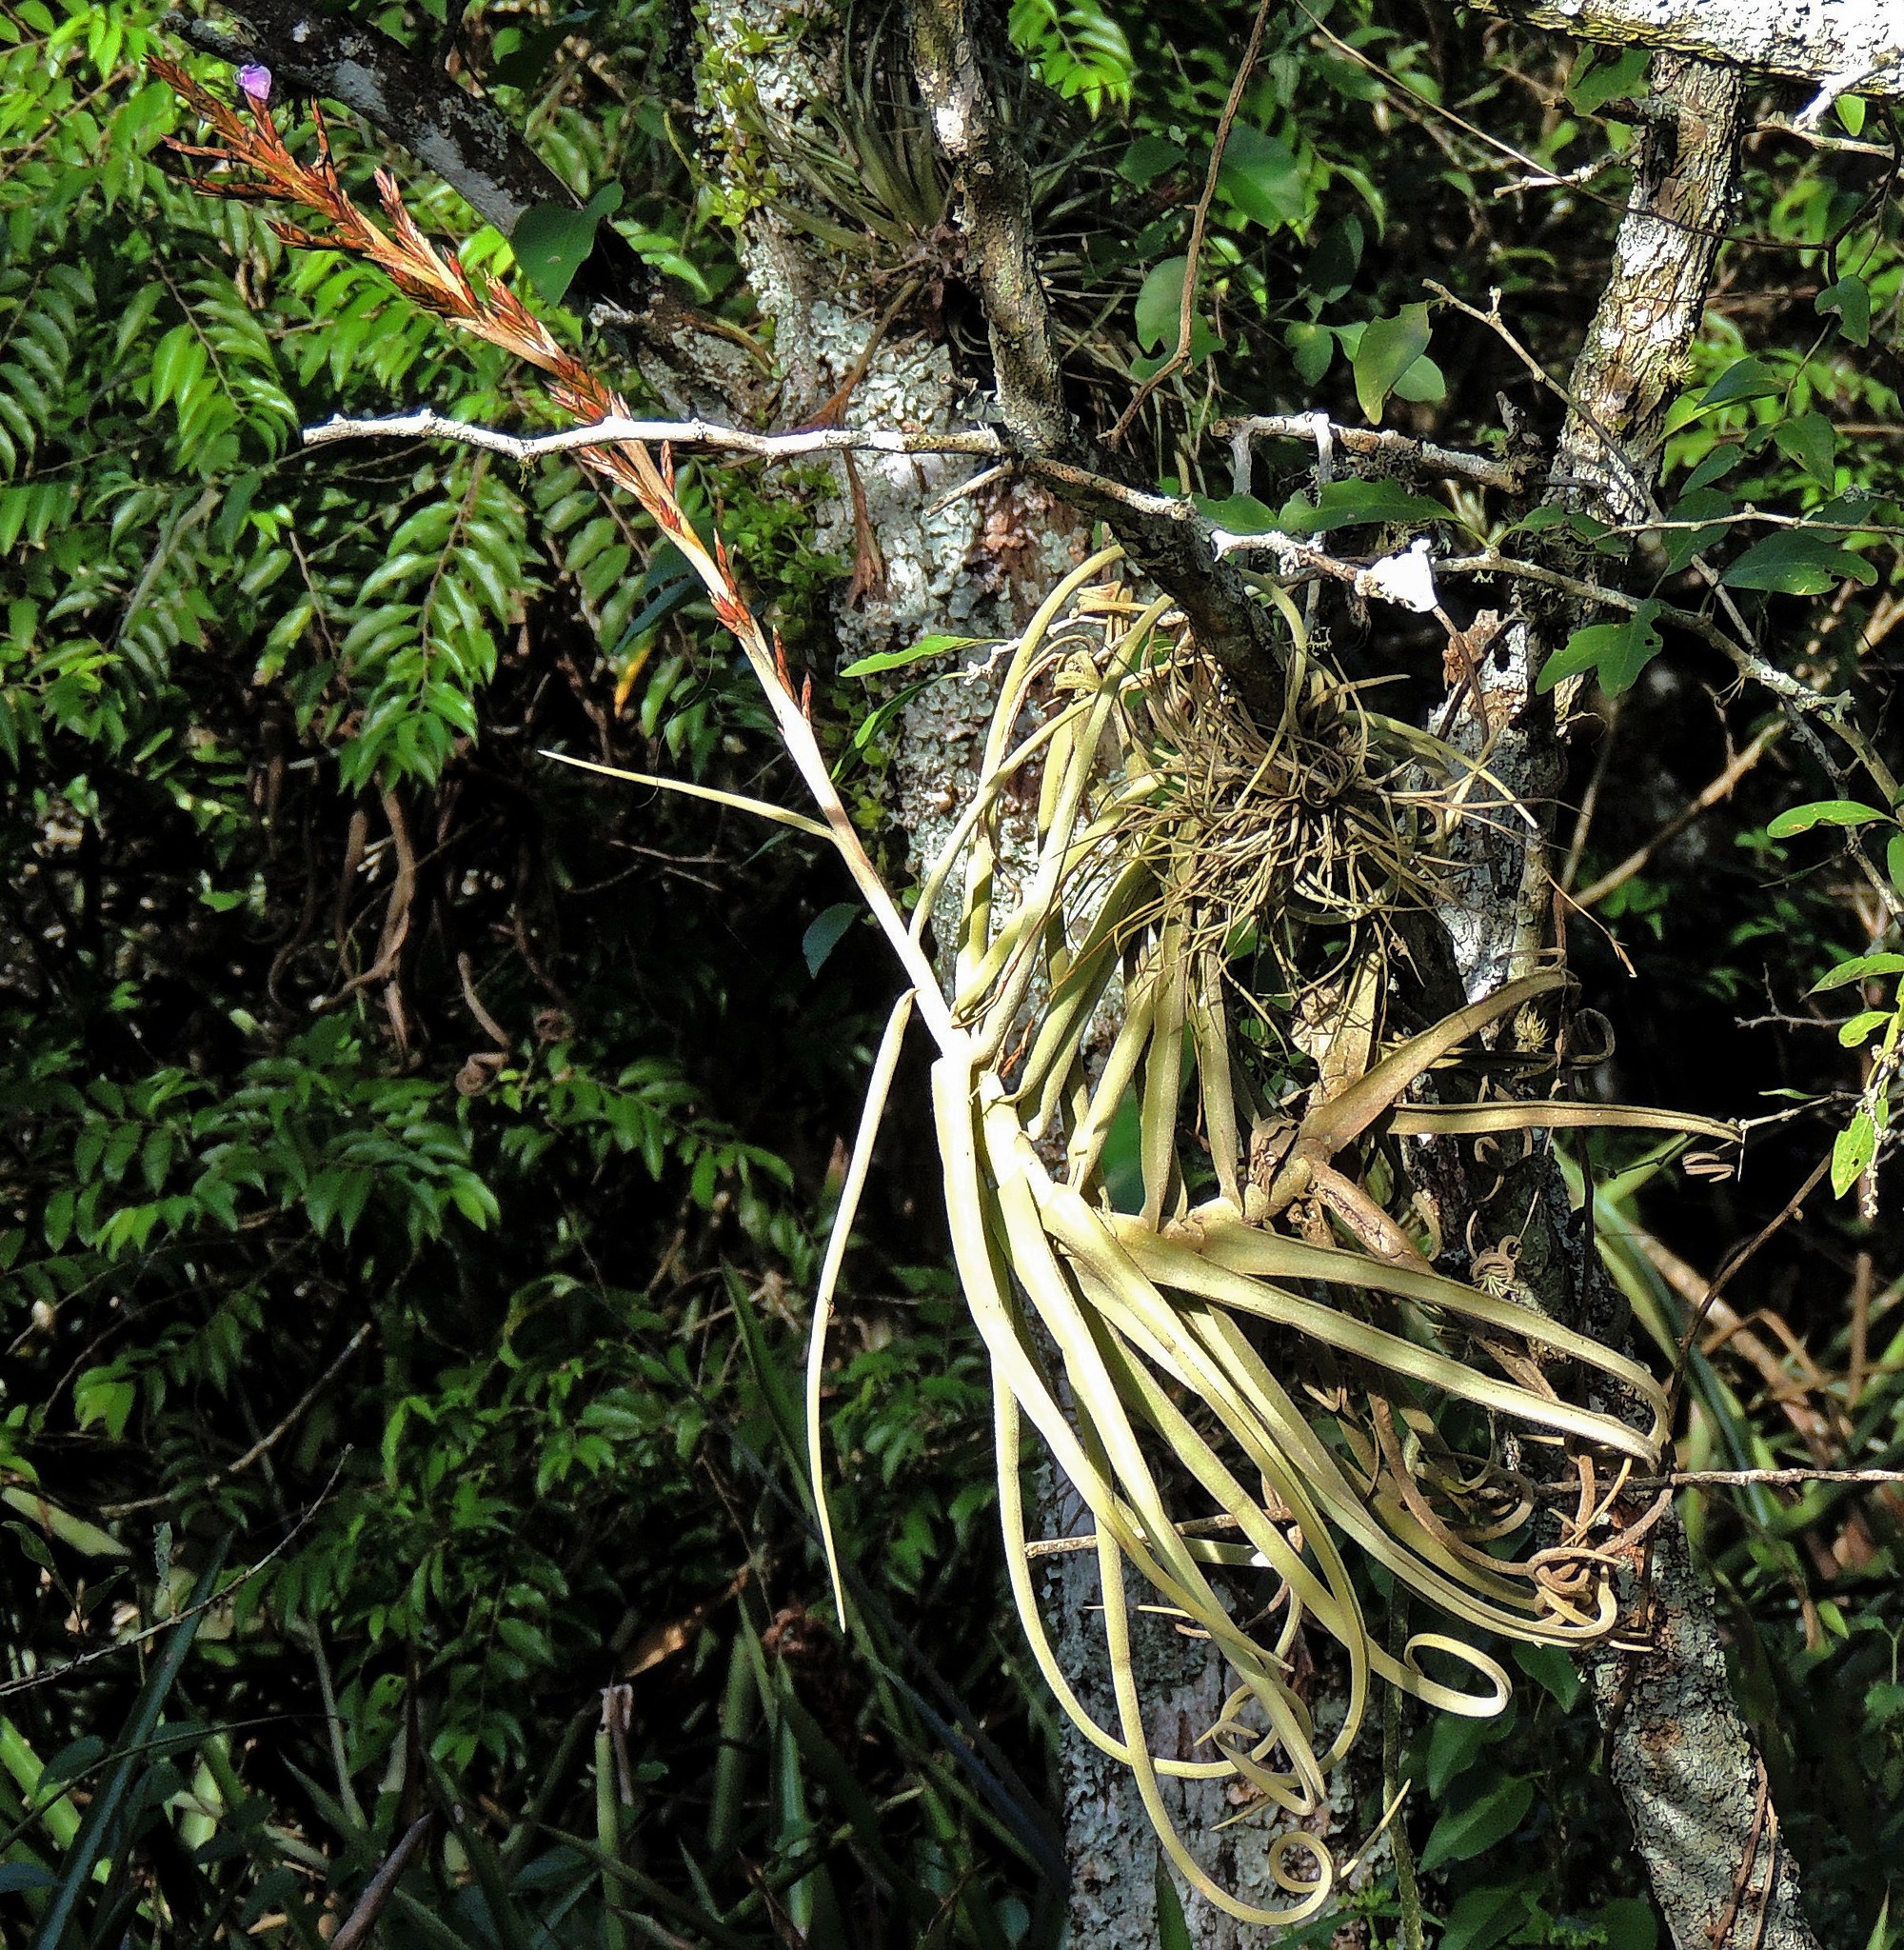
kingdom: Plantae
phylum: Tracheophyta
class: Liliopsida
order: Poales
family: Bromeliaceae
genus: Tillandsia
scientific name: Tillandsia duratii
